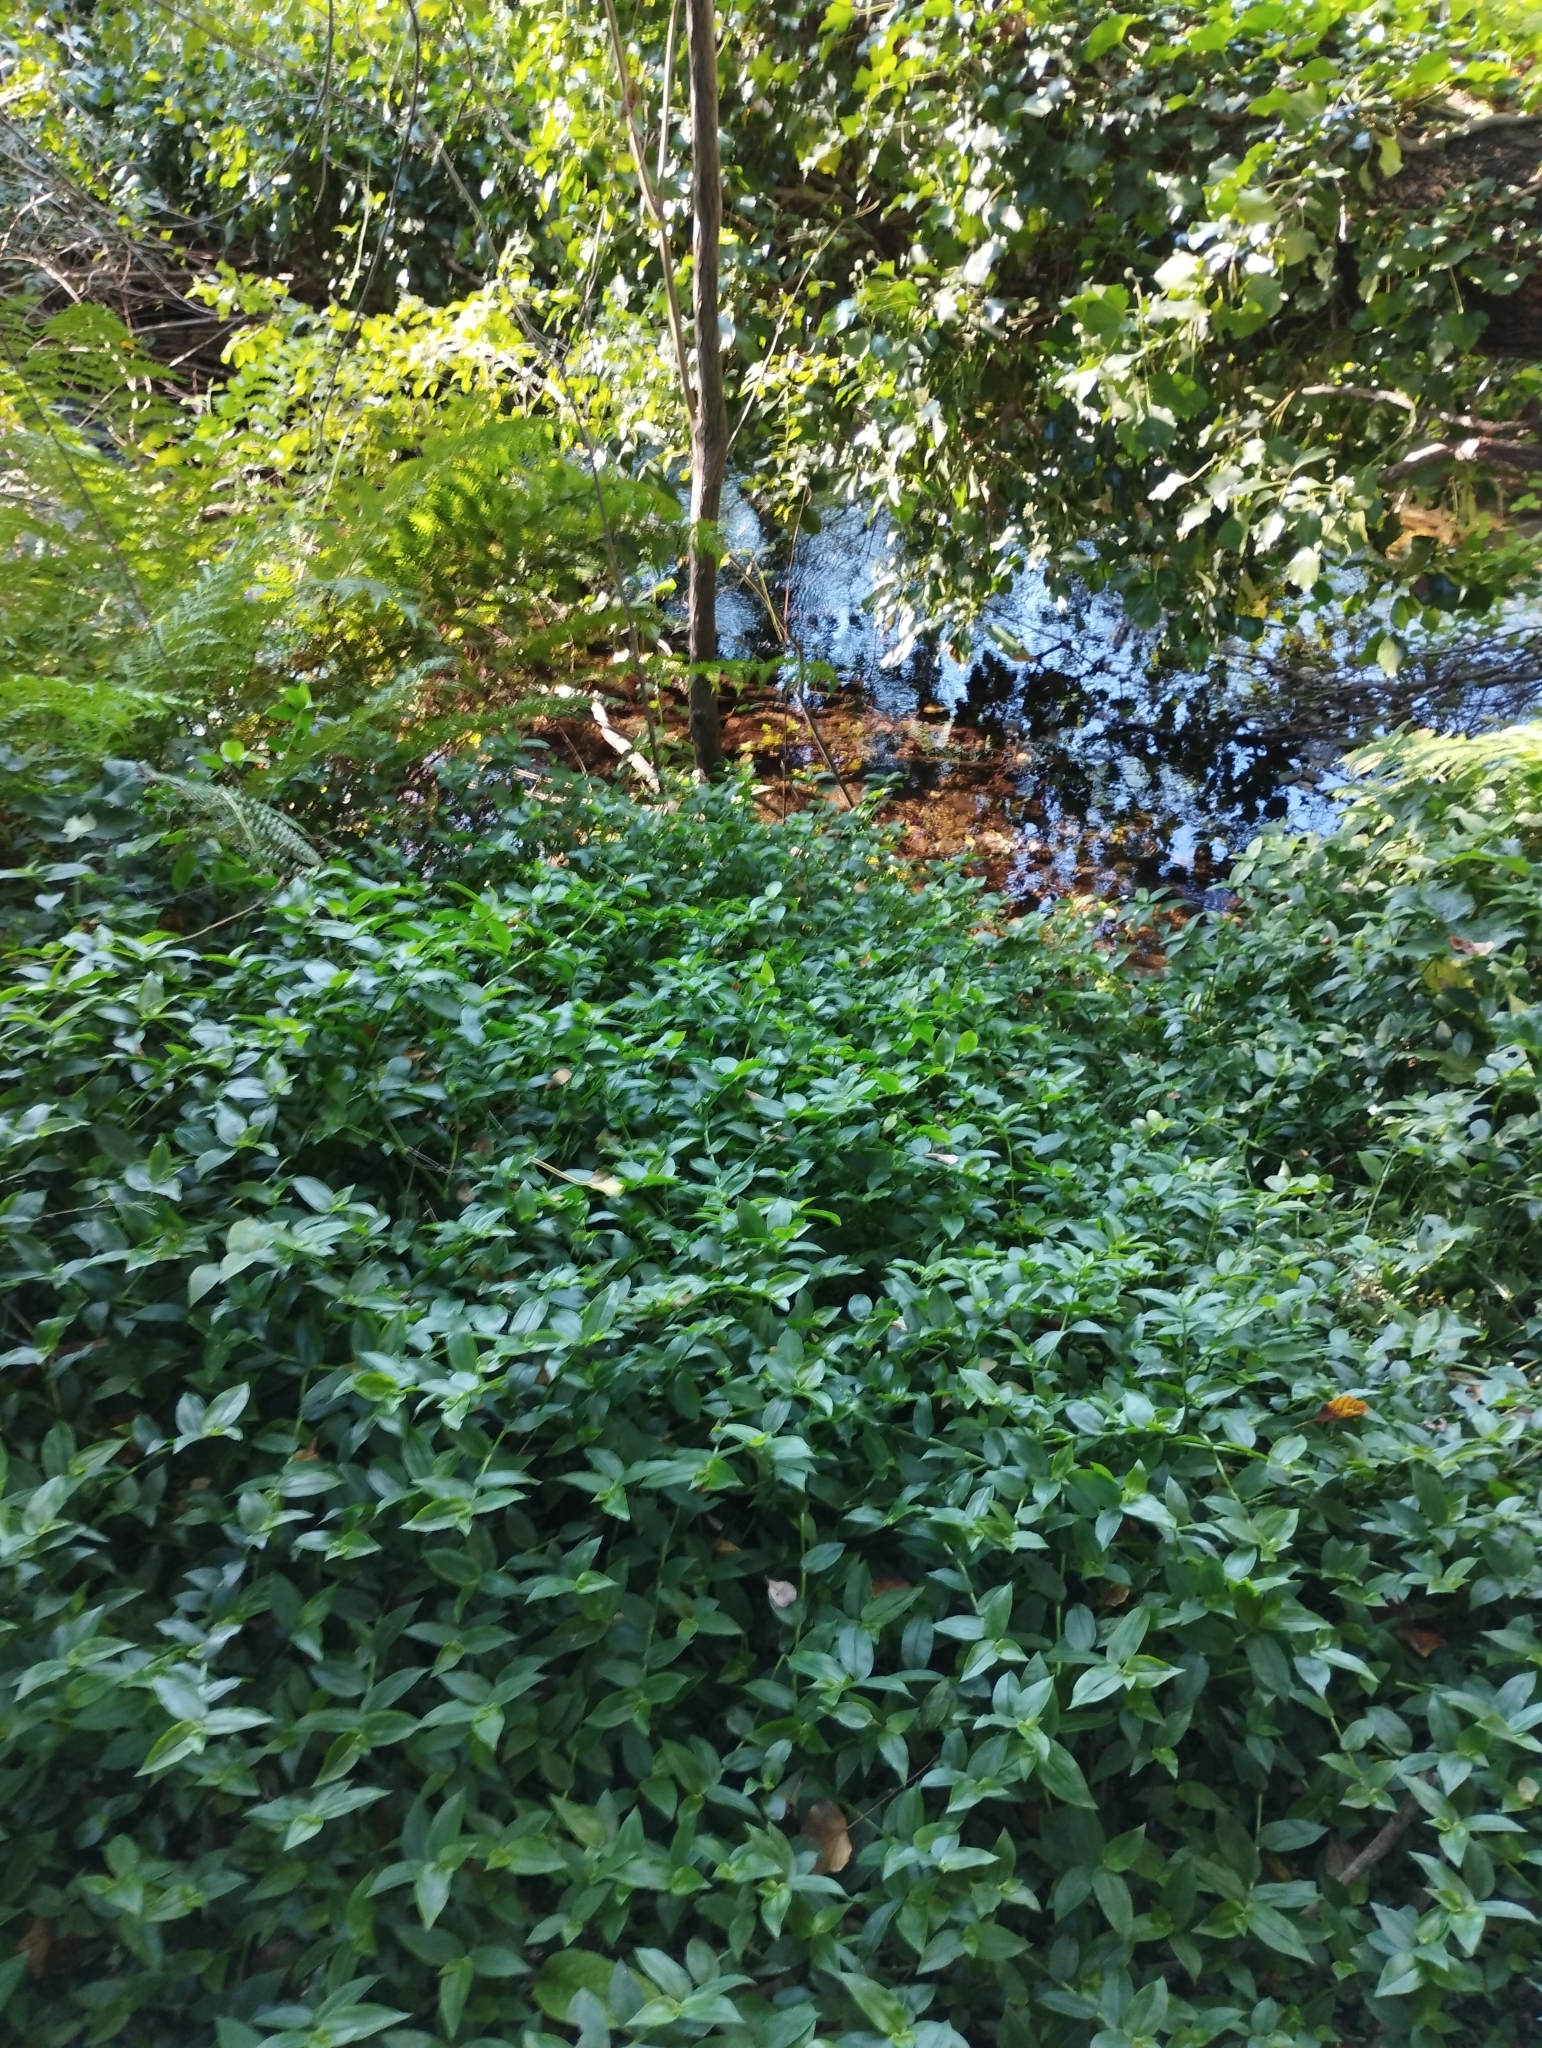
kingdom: Plantae
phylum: Tracheophyta
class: Liliopsida
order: Commelinales
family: Commelinaceae
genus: Tradescantia
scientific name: Tradescantia fluminensis
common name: Wandering-jew
